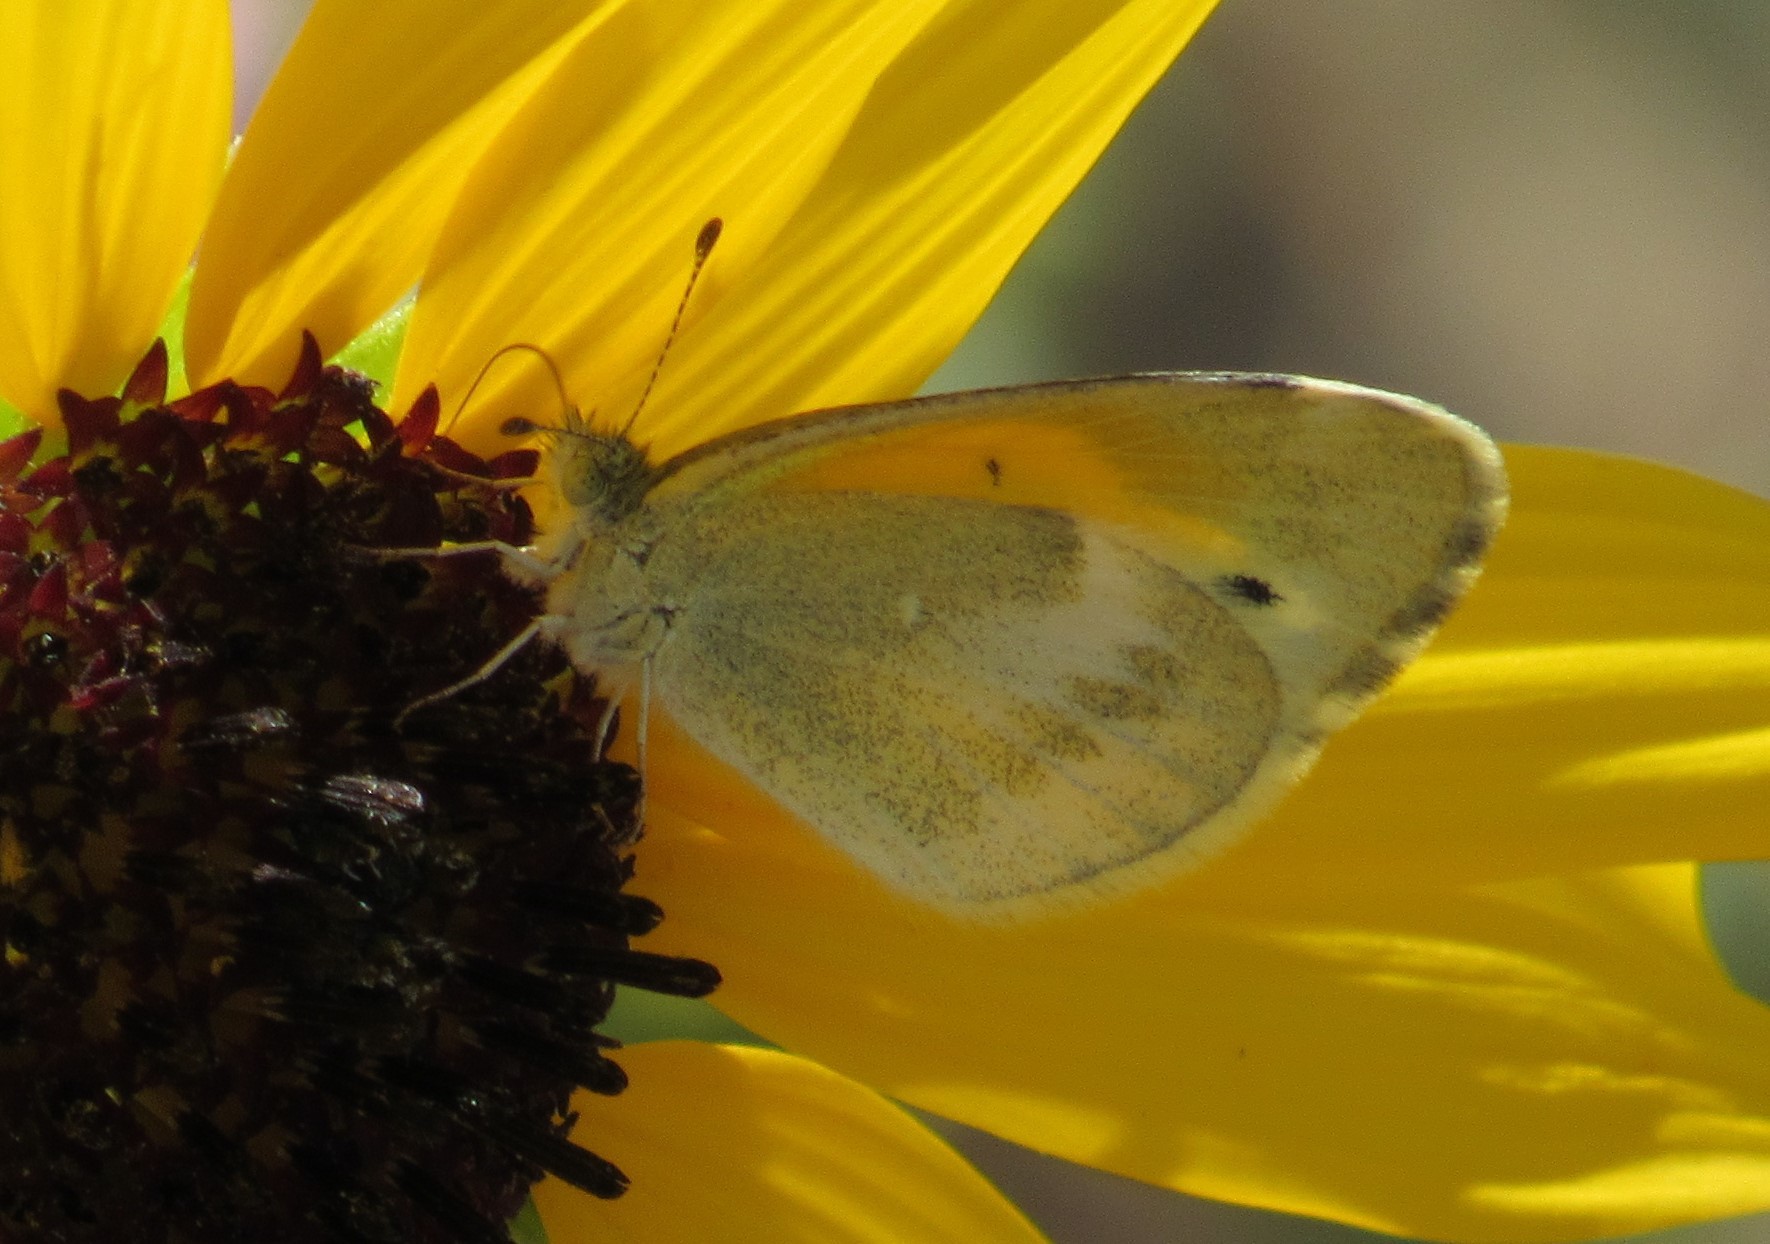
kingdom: Animalia
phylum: Arthropoda
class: Insecta
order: Lepidoptera
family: Pieridae
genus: Nathalis
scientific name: Nathalis iole
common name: Dainty sulphur
